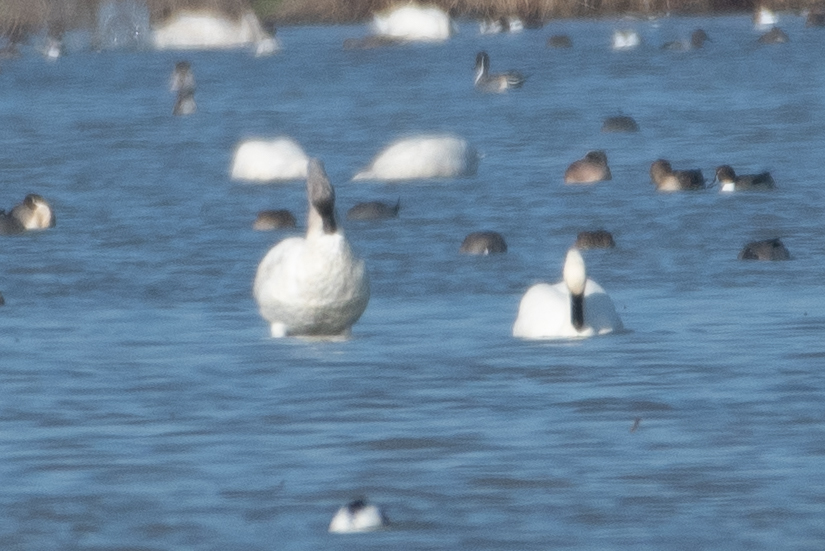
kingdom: Animalia
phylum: Chordata
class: Aves
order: Anseriformes
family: Anatidae
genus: Cygnus
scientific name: Cygnus columbianus
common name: Tundra swan
